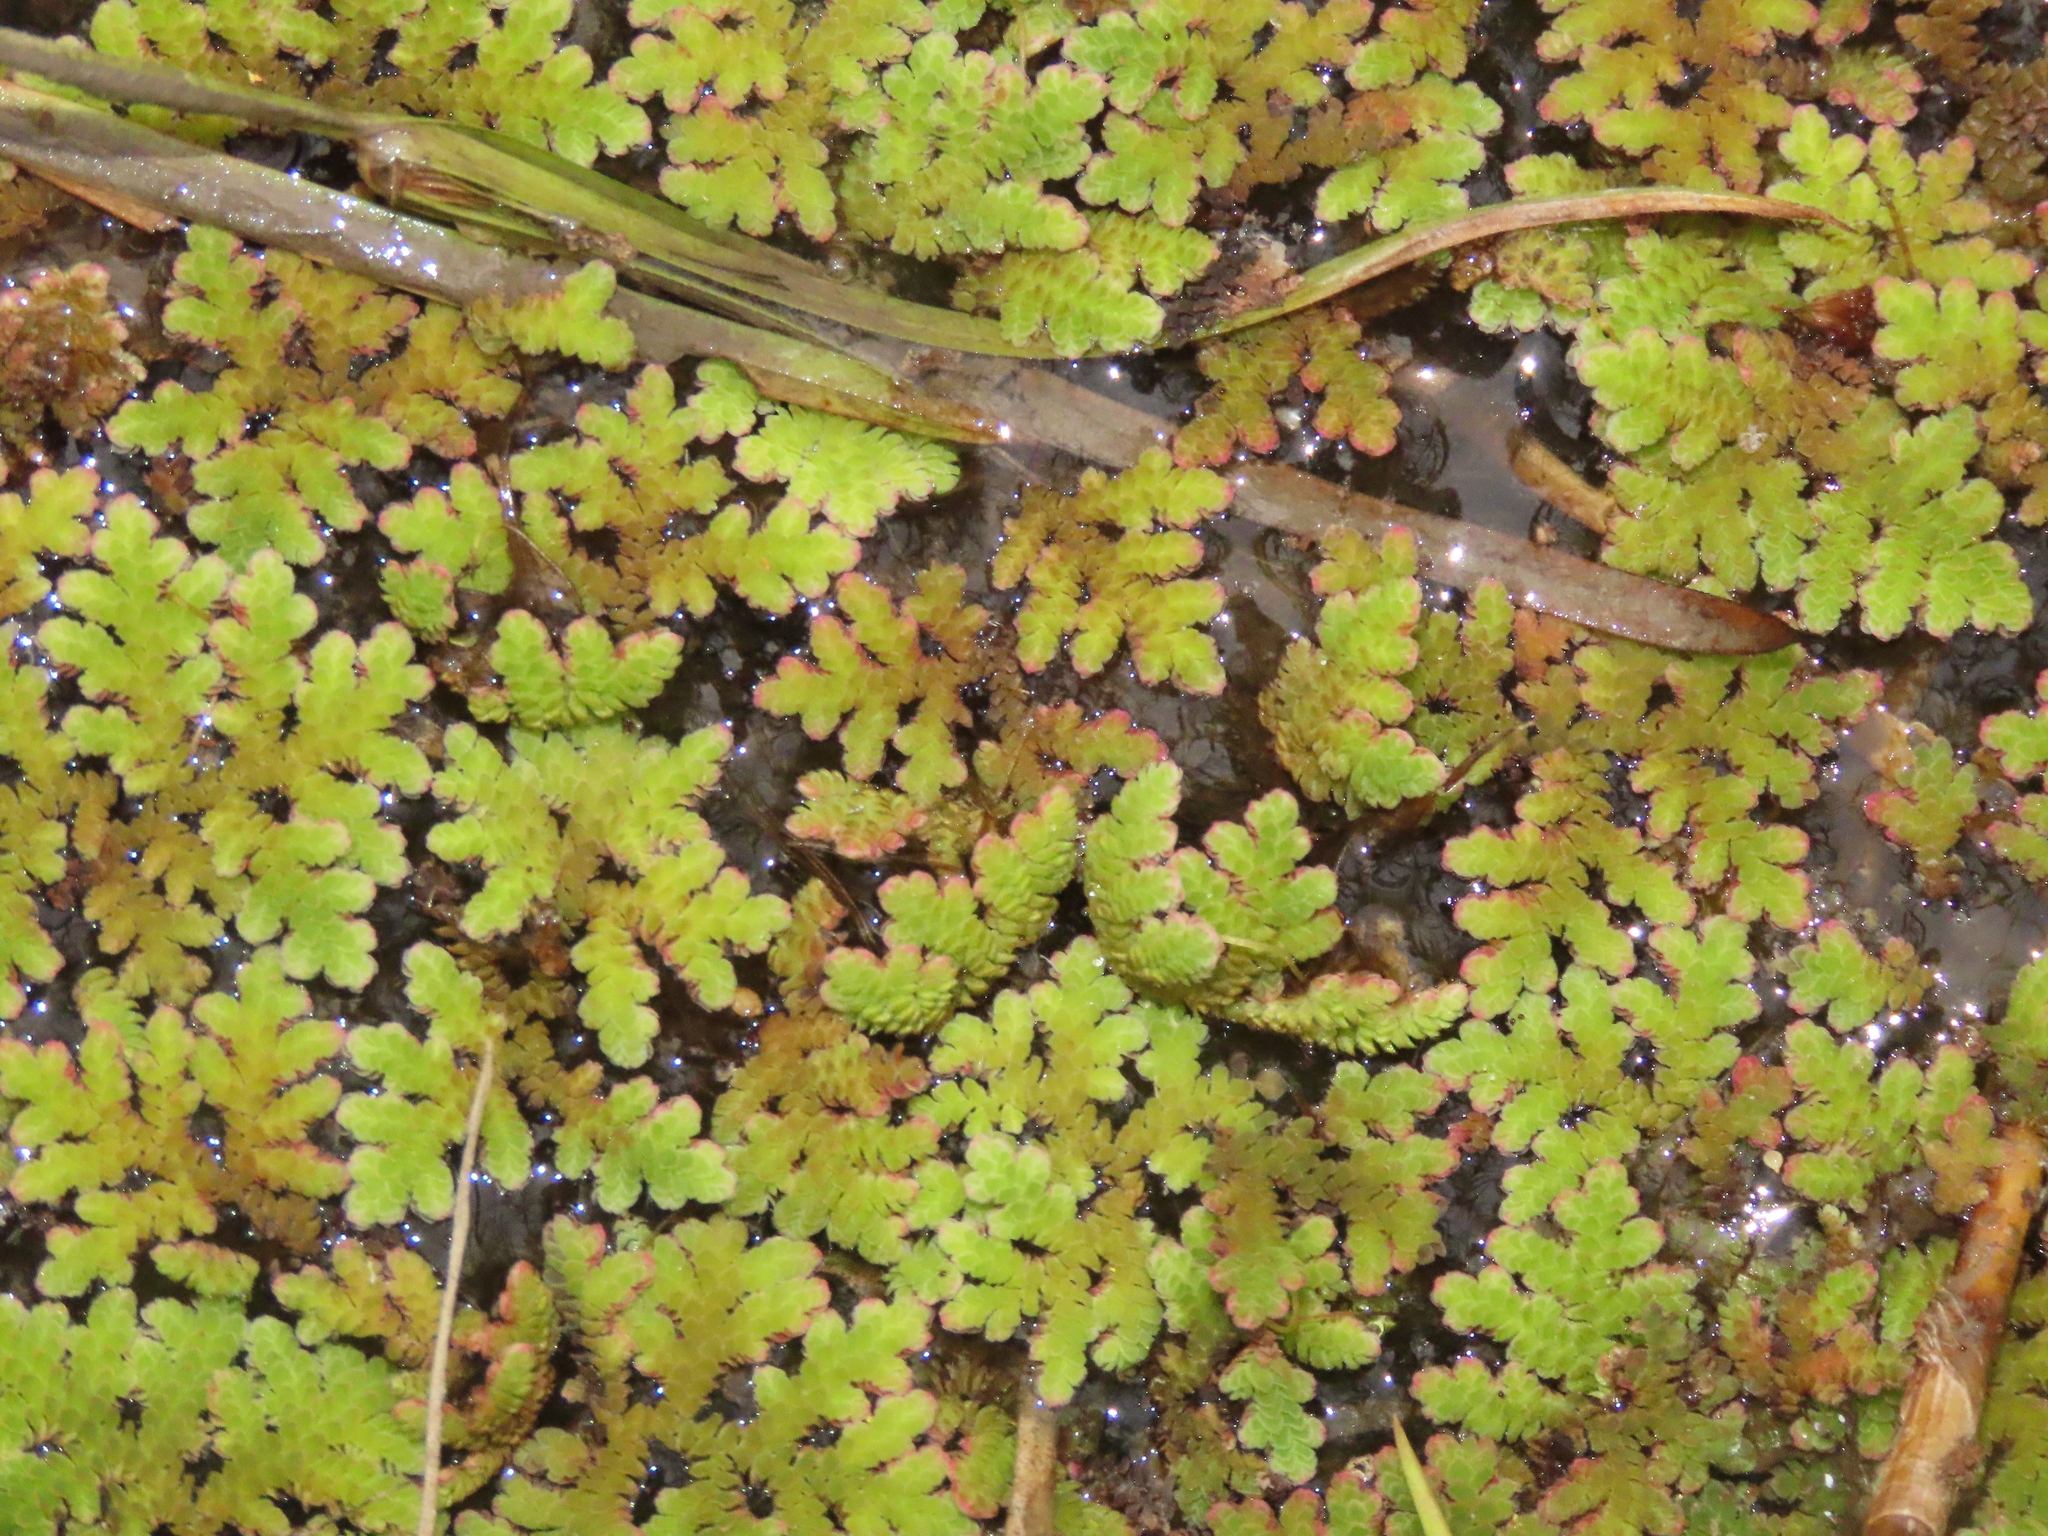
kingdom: Plantae
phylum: Tracheophyta
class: Polypodiopsida
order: Salviniales
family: Salviniaceae
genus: Azolla
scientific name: Azolla caroliniana
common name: Carolina mosquitofern
